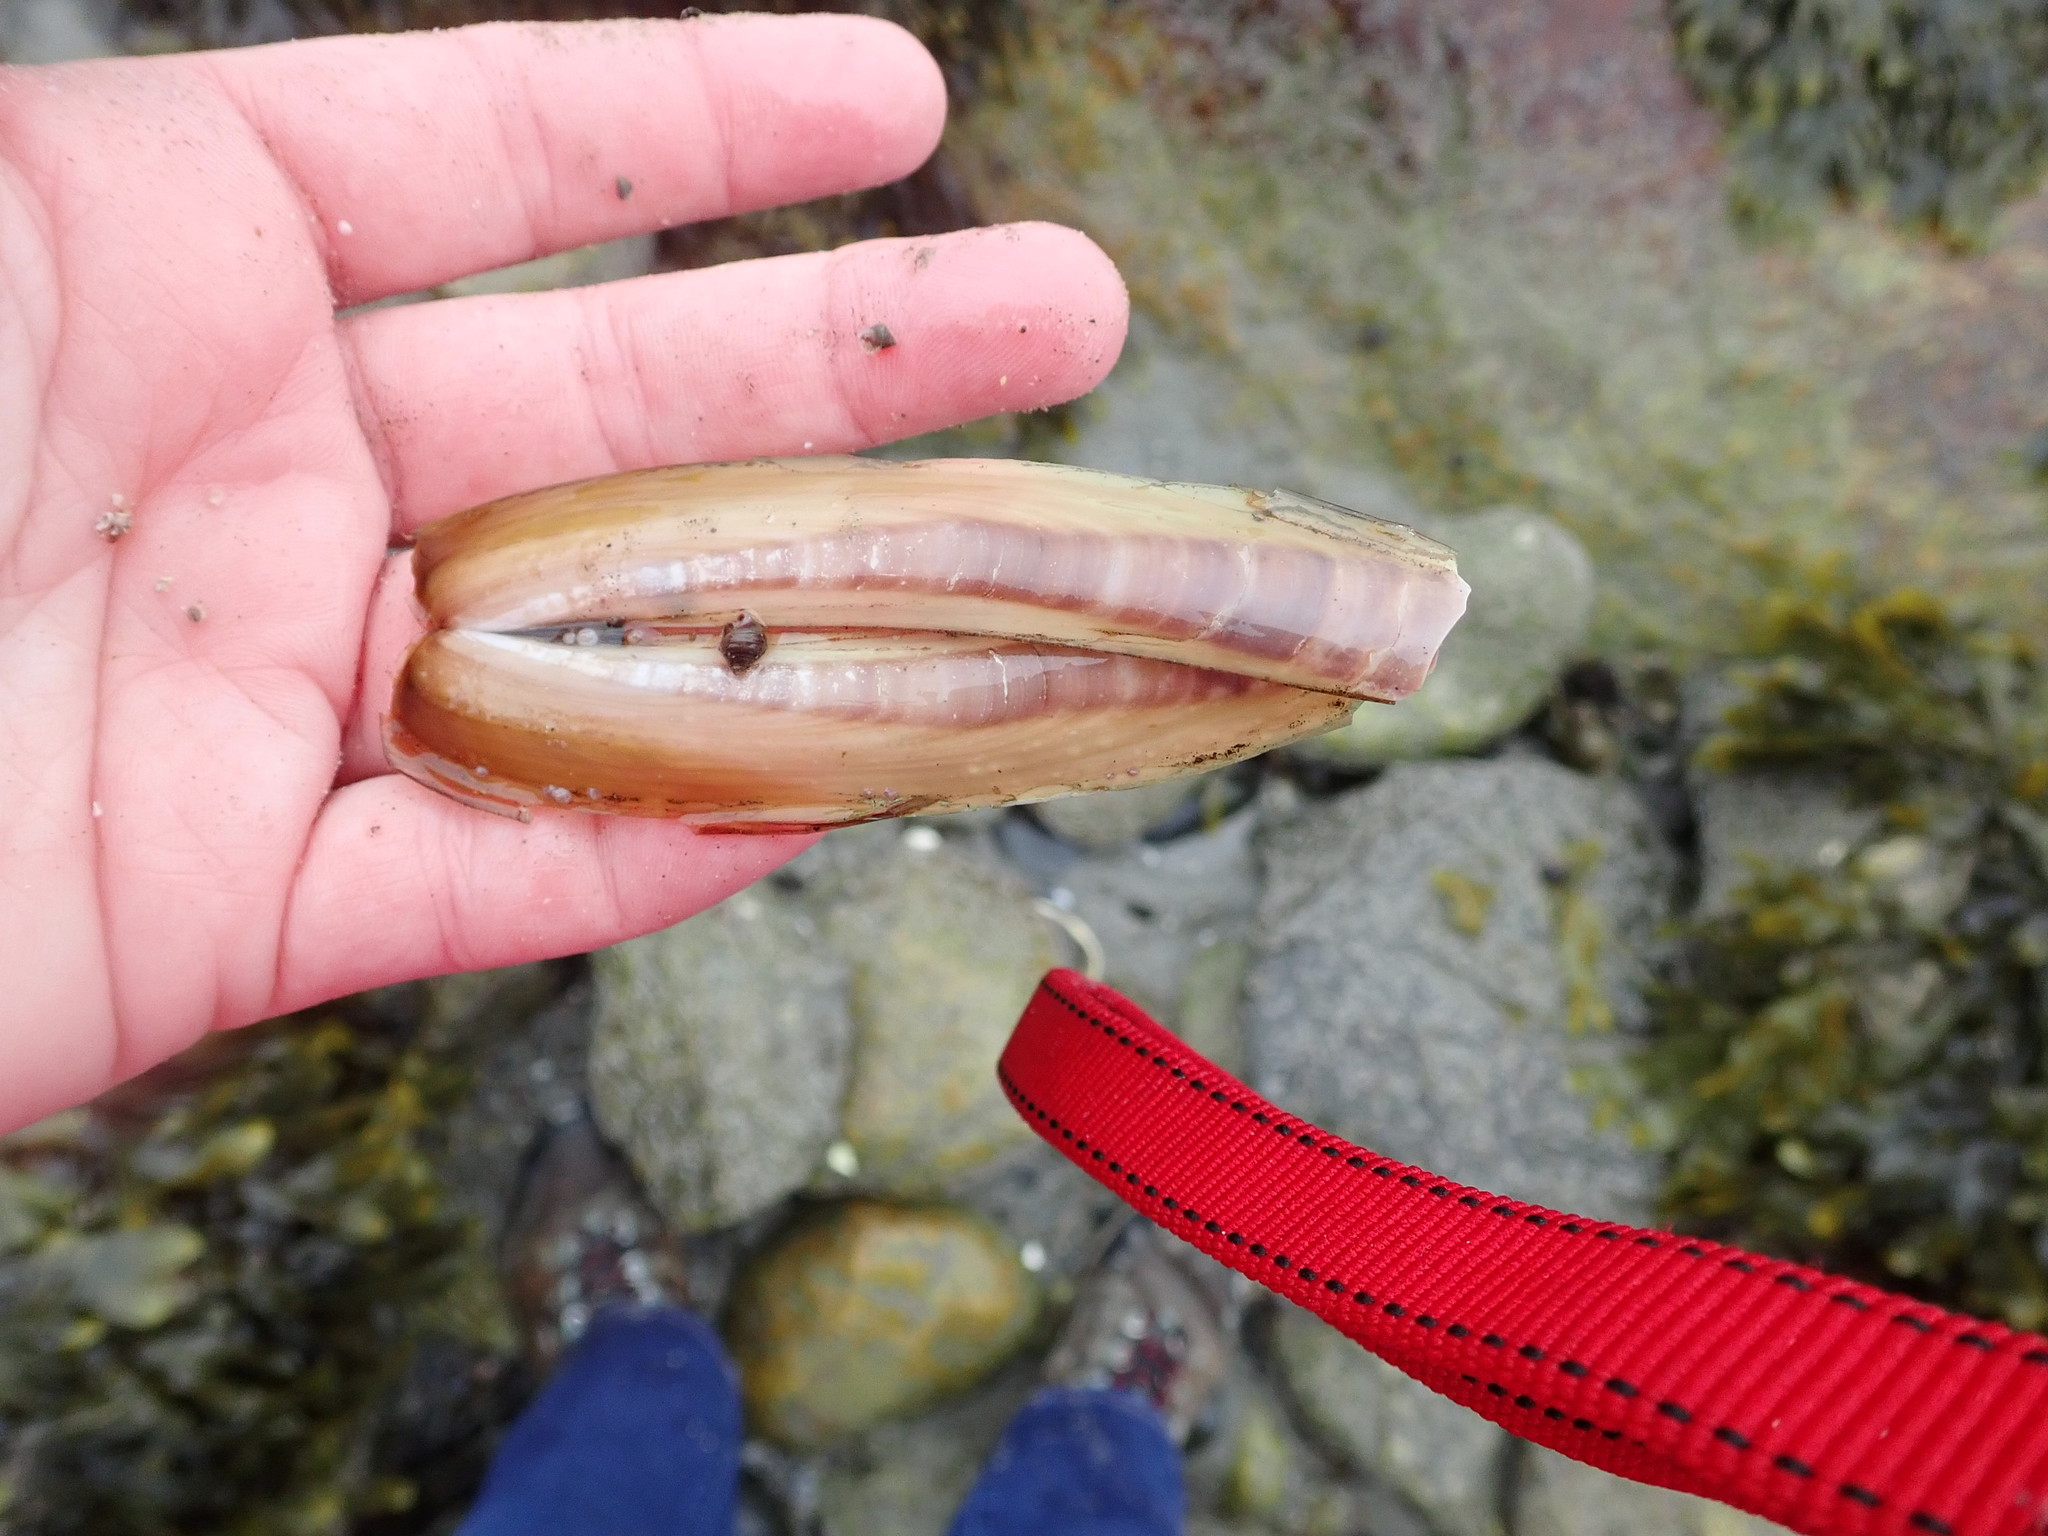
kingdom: Animalia
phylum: Mollusca
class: Bivalvia
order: Adapedonta
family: Pharidae
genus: Ensis
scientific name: Ensis leei
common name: American jack knife clam
